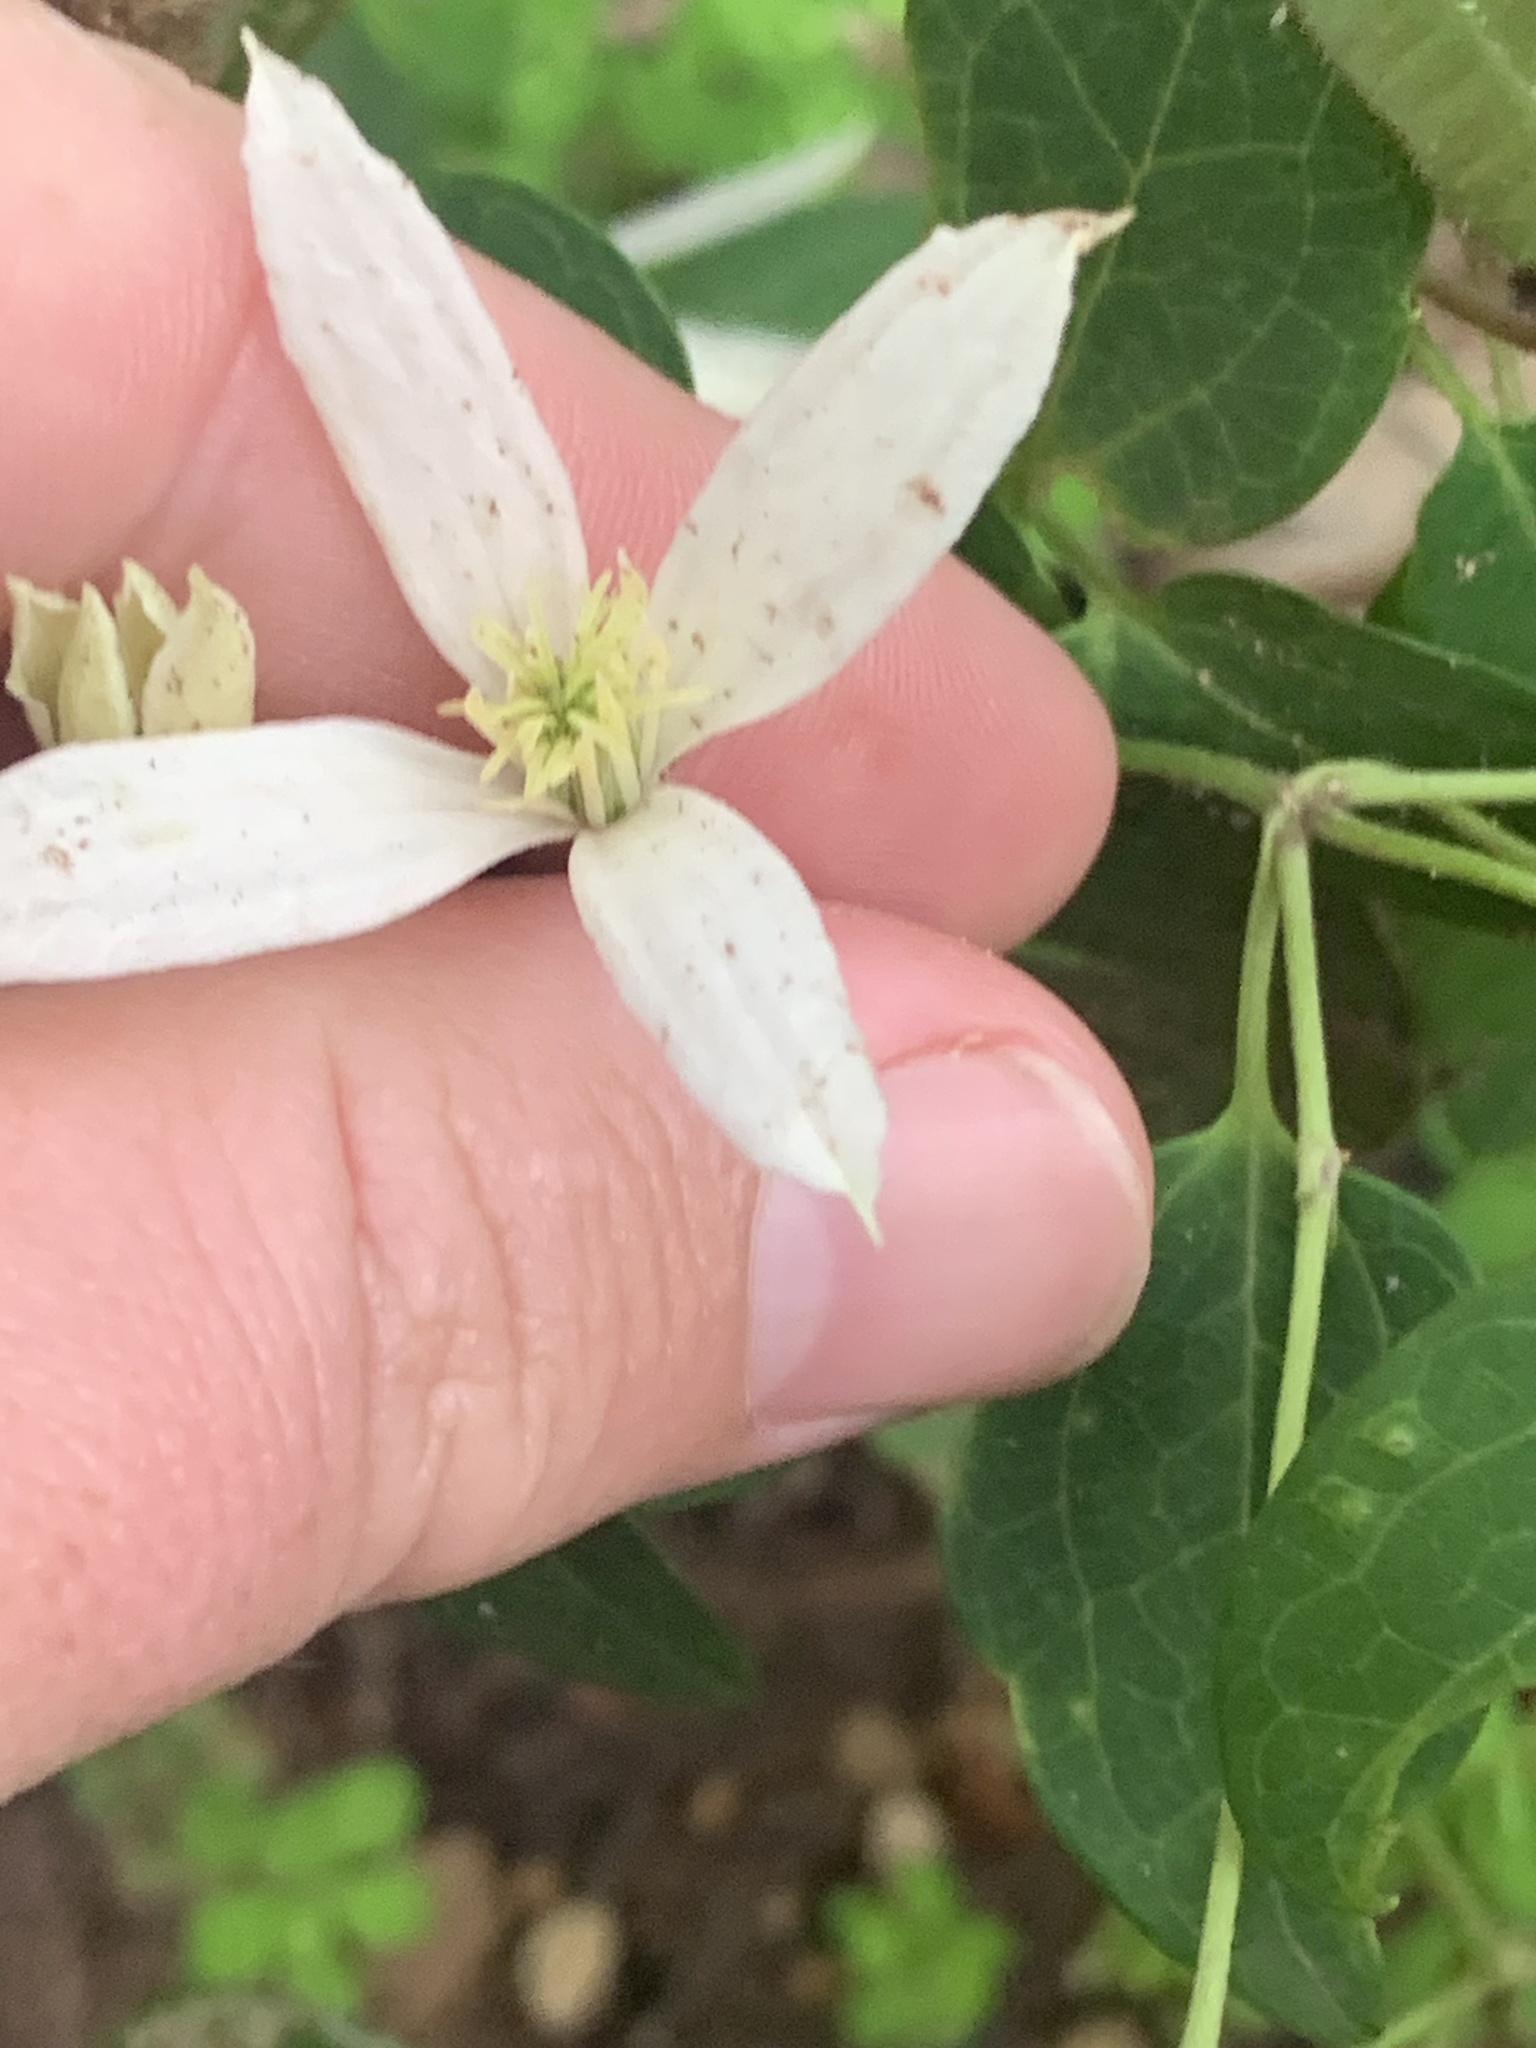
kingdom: Plantae
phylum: Tracheophyta
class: Magnoliopsida
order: Ranunculales
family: Ranunculaceae
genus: Clematis
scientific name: Clematis pubescens
